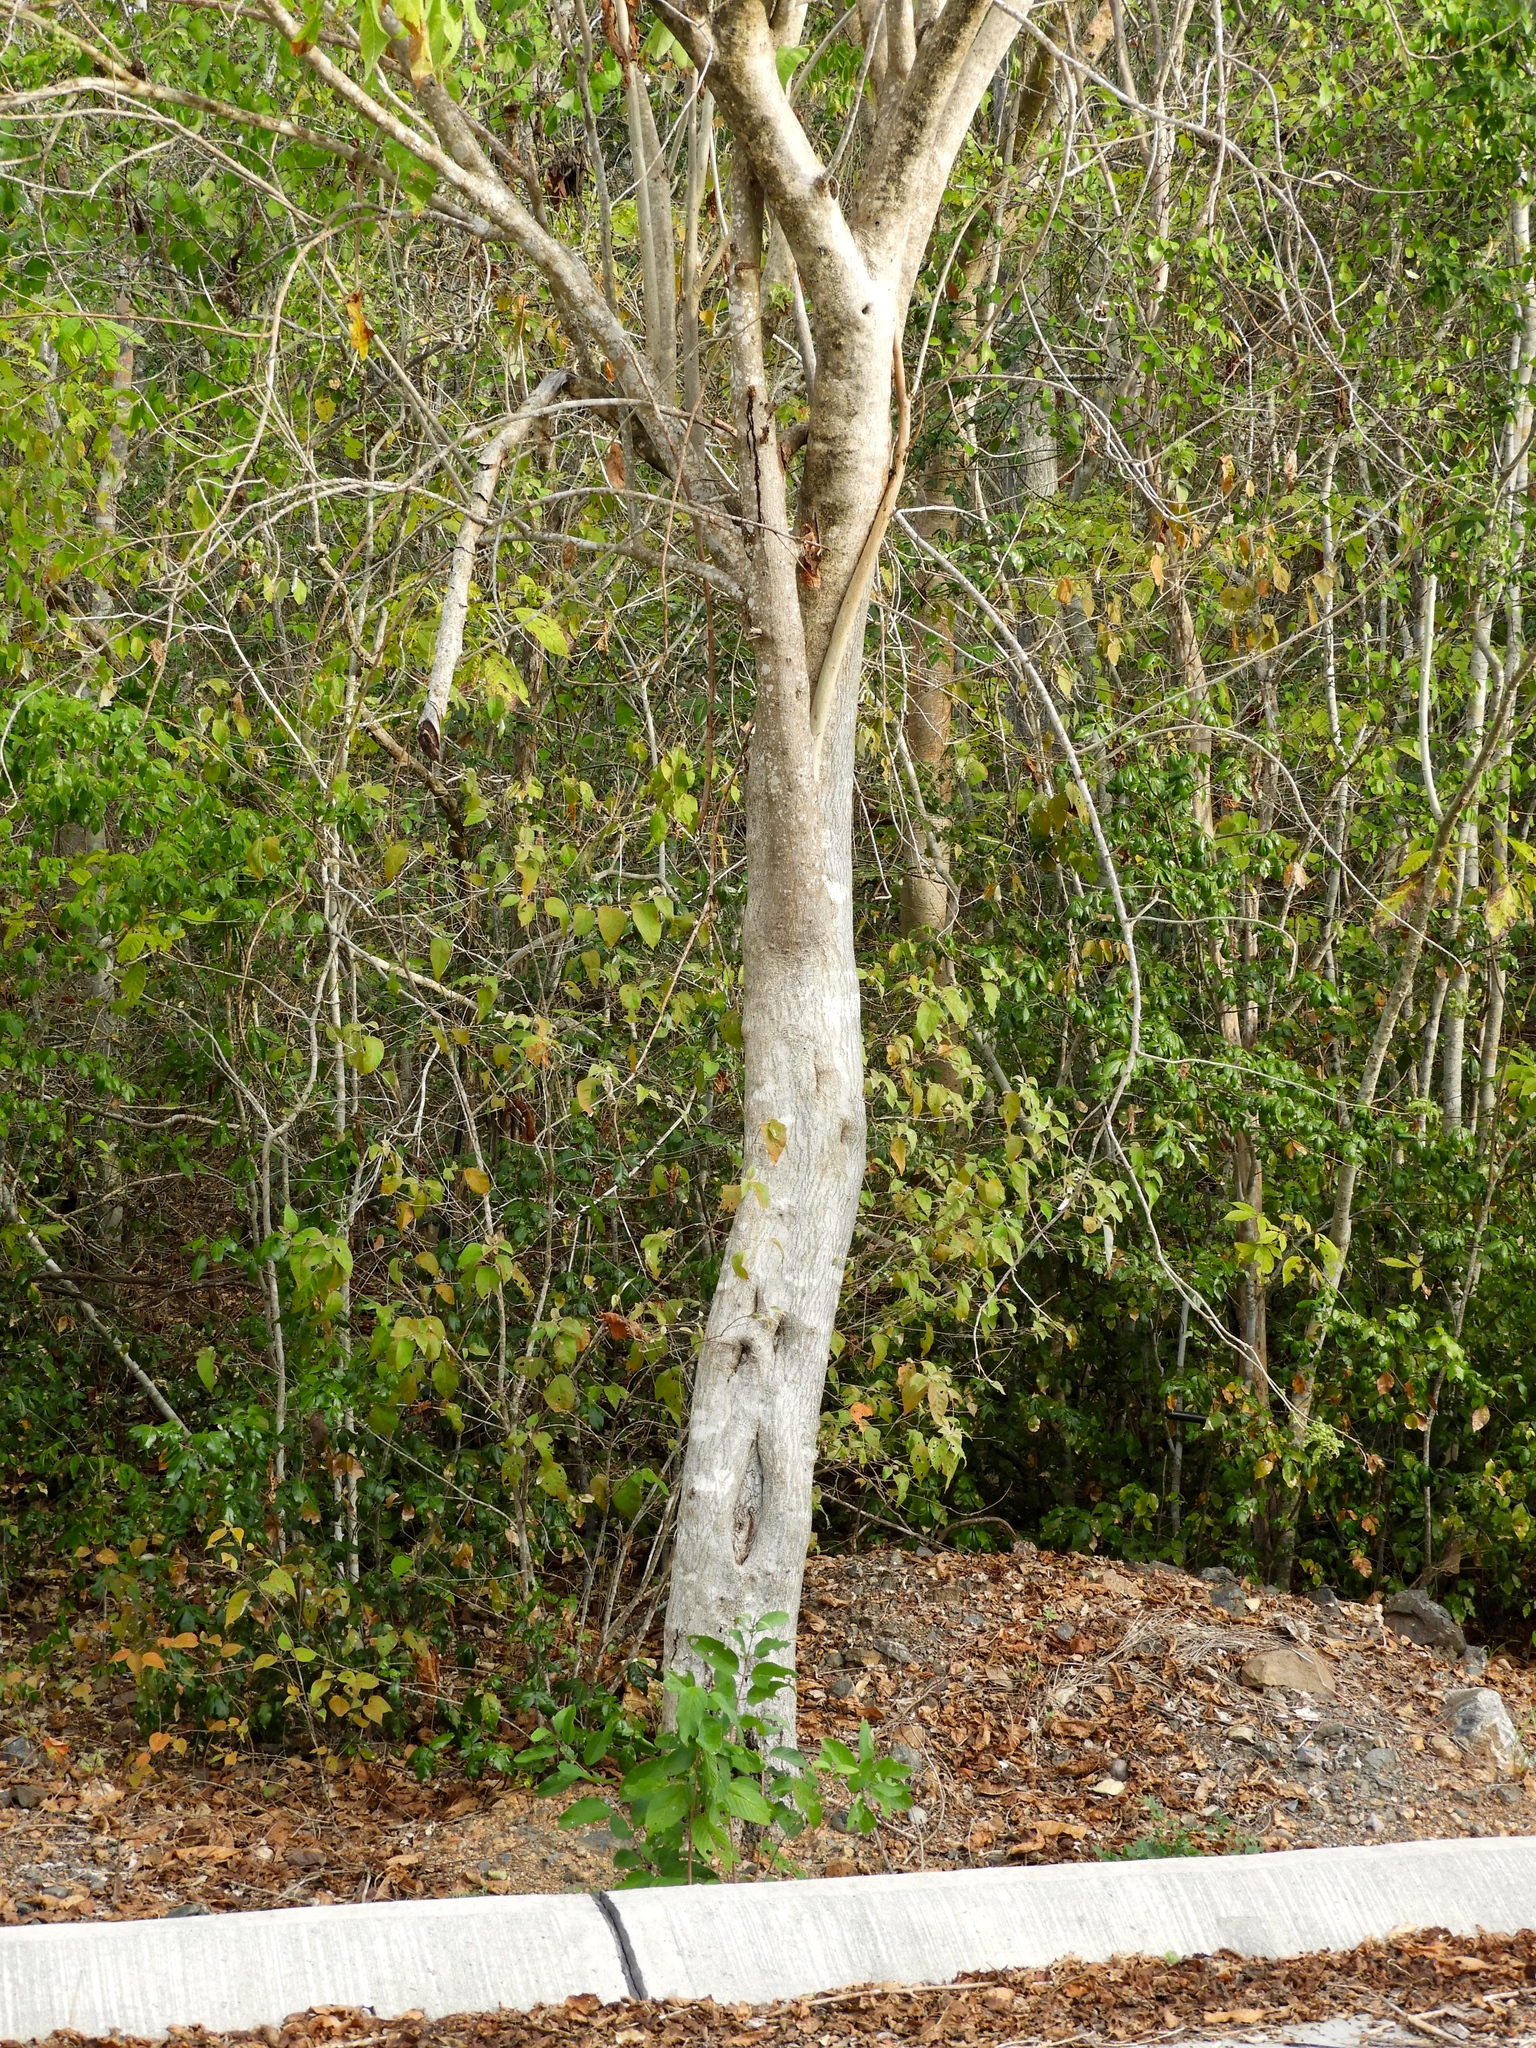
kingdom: Plantae
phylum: Tracheophyta
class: Magnoliopsida
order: Solanales
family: Convolvulaceae
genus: Ipomoea
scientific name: Ipomoea arborescens
